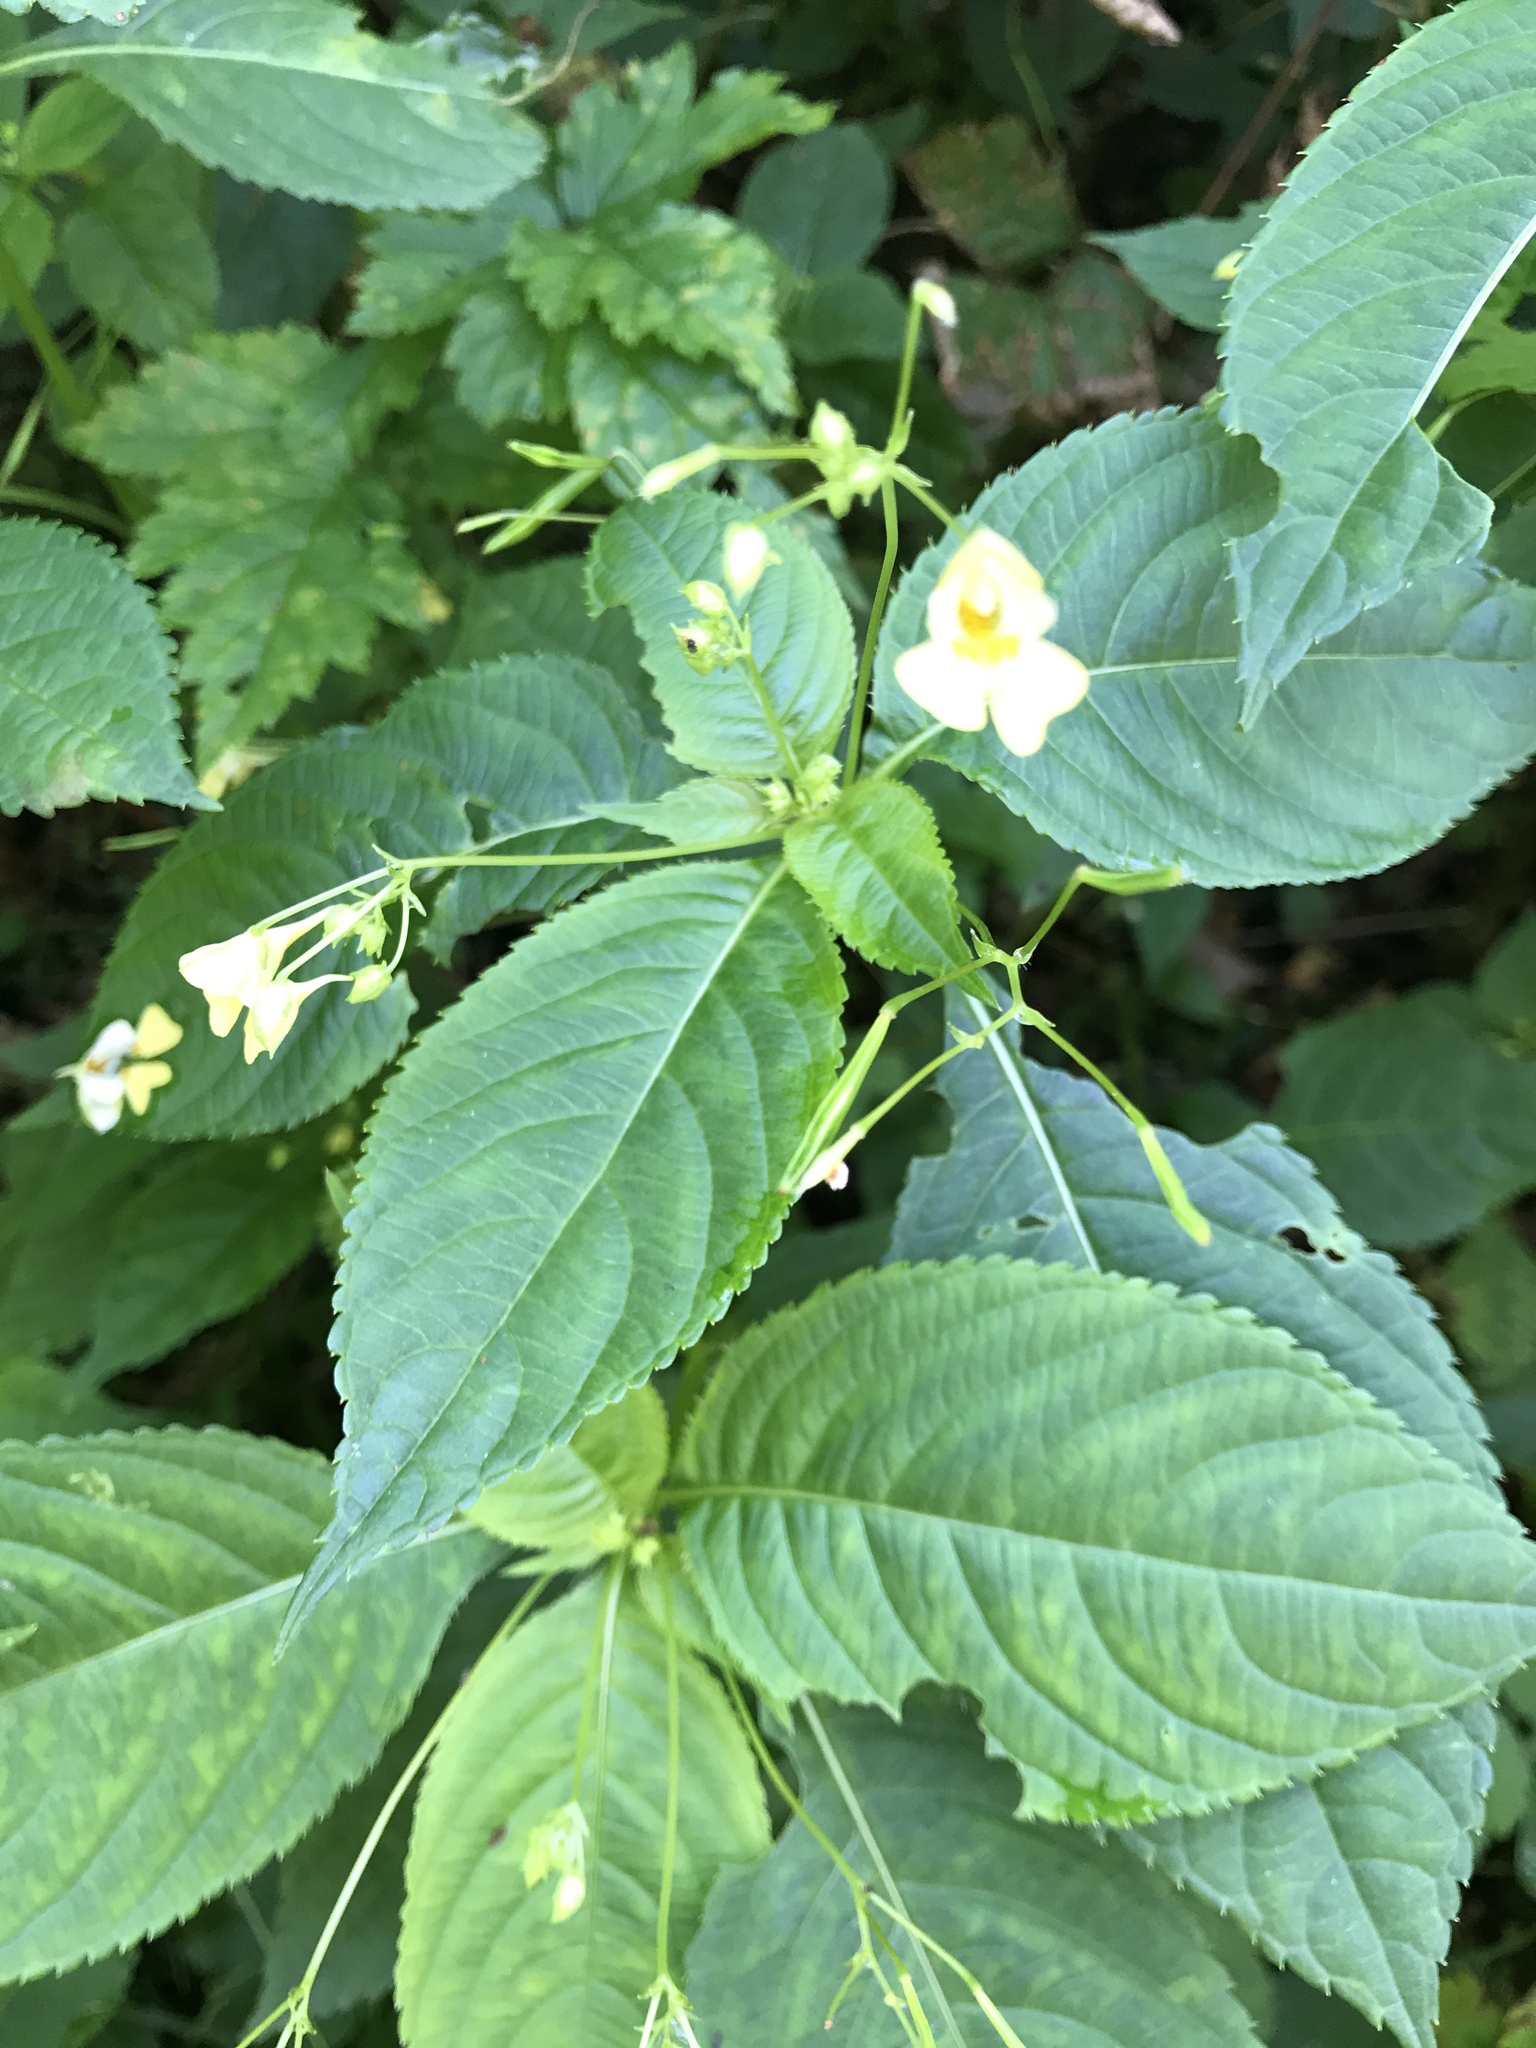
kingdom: Plantae
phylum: Tracheophyta
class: Magnoliopsida
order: Ericales
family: Balsaminaceae
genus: Impatiens
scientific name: Impatiens parviflora
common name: Small balsam
